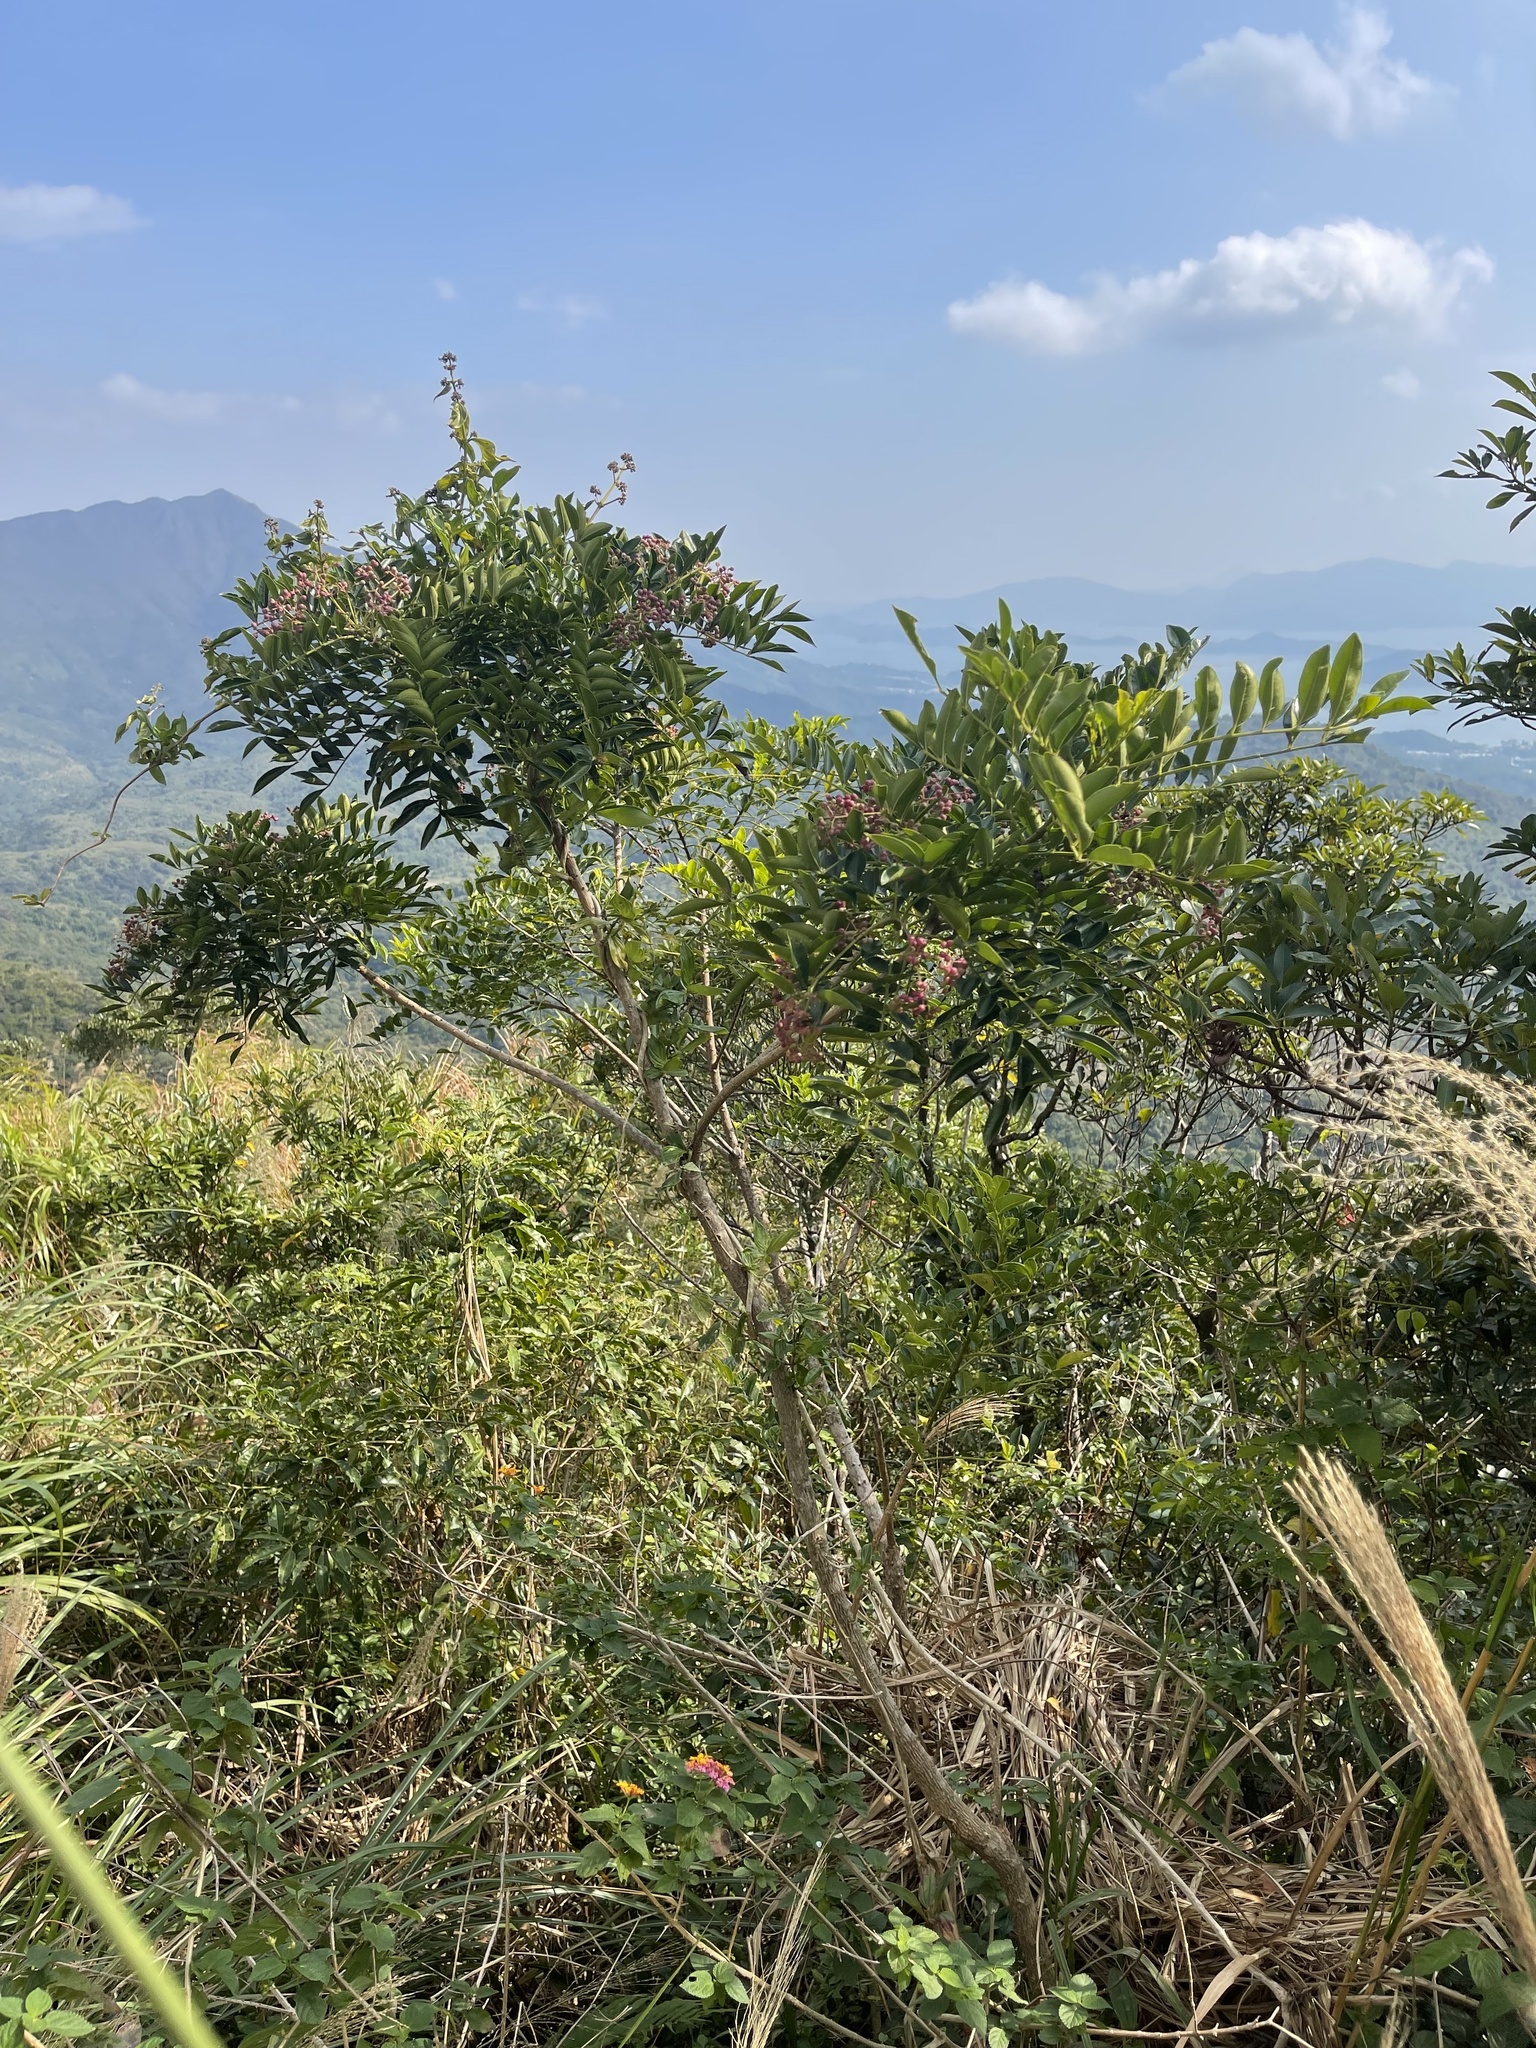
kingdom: Plantae
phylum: Tracheophyta
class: Magnoliopsida
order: Sapindales
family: Rutaceae
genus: Zanthoxylum
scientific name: Zanthoxylum avicennae
